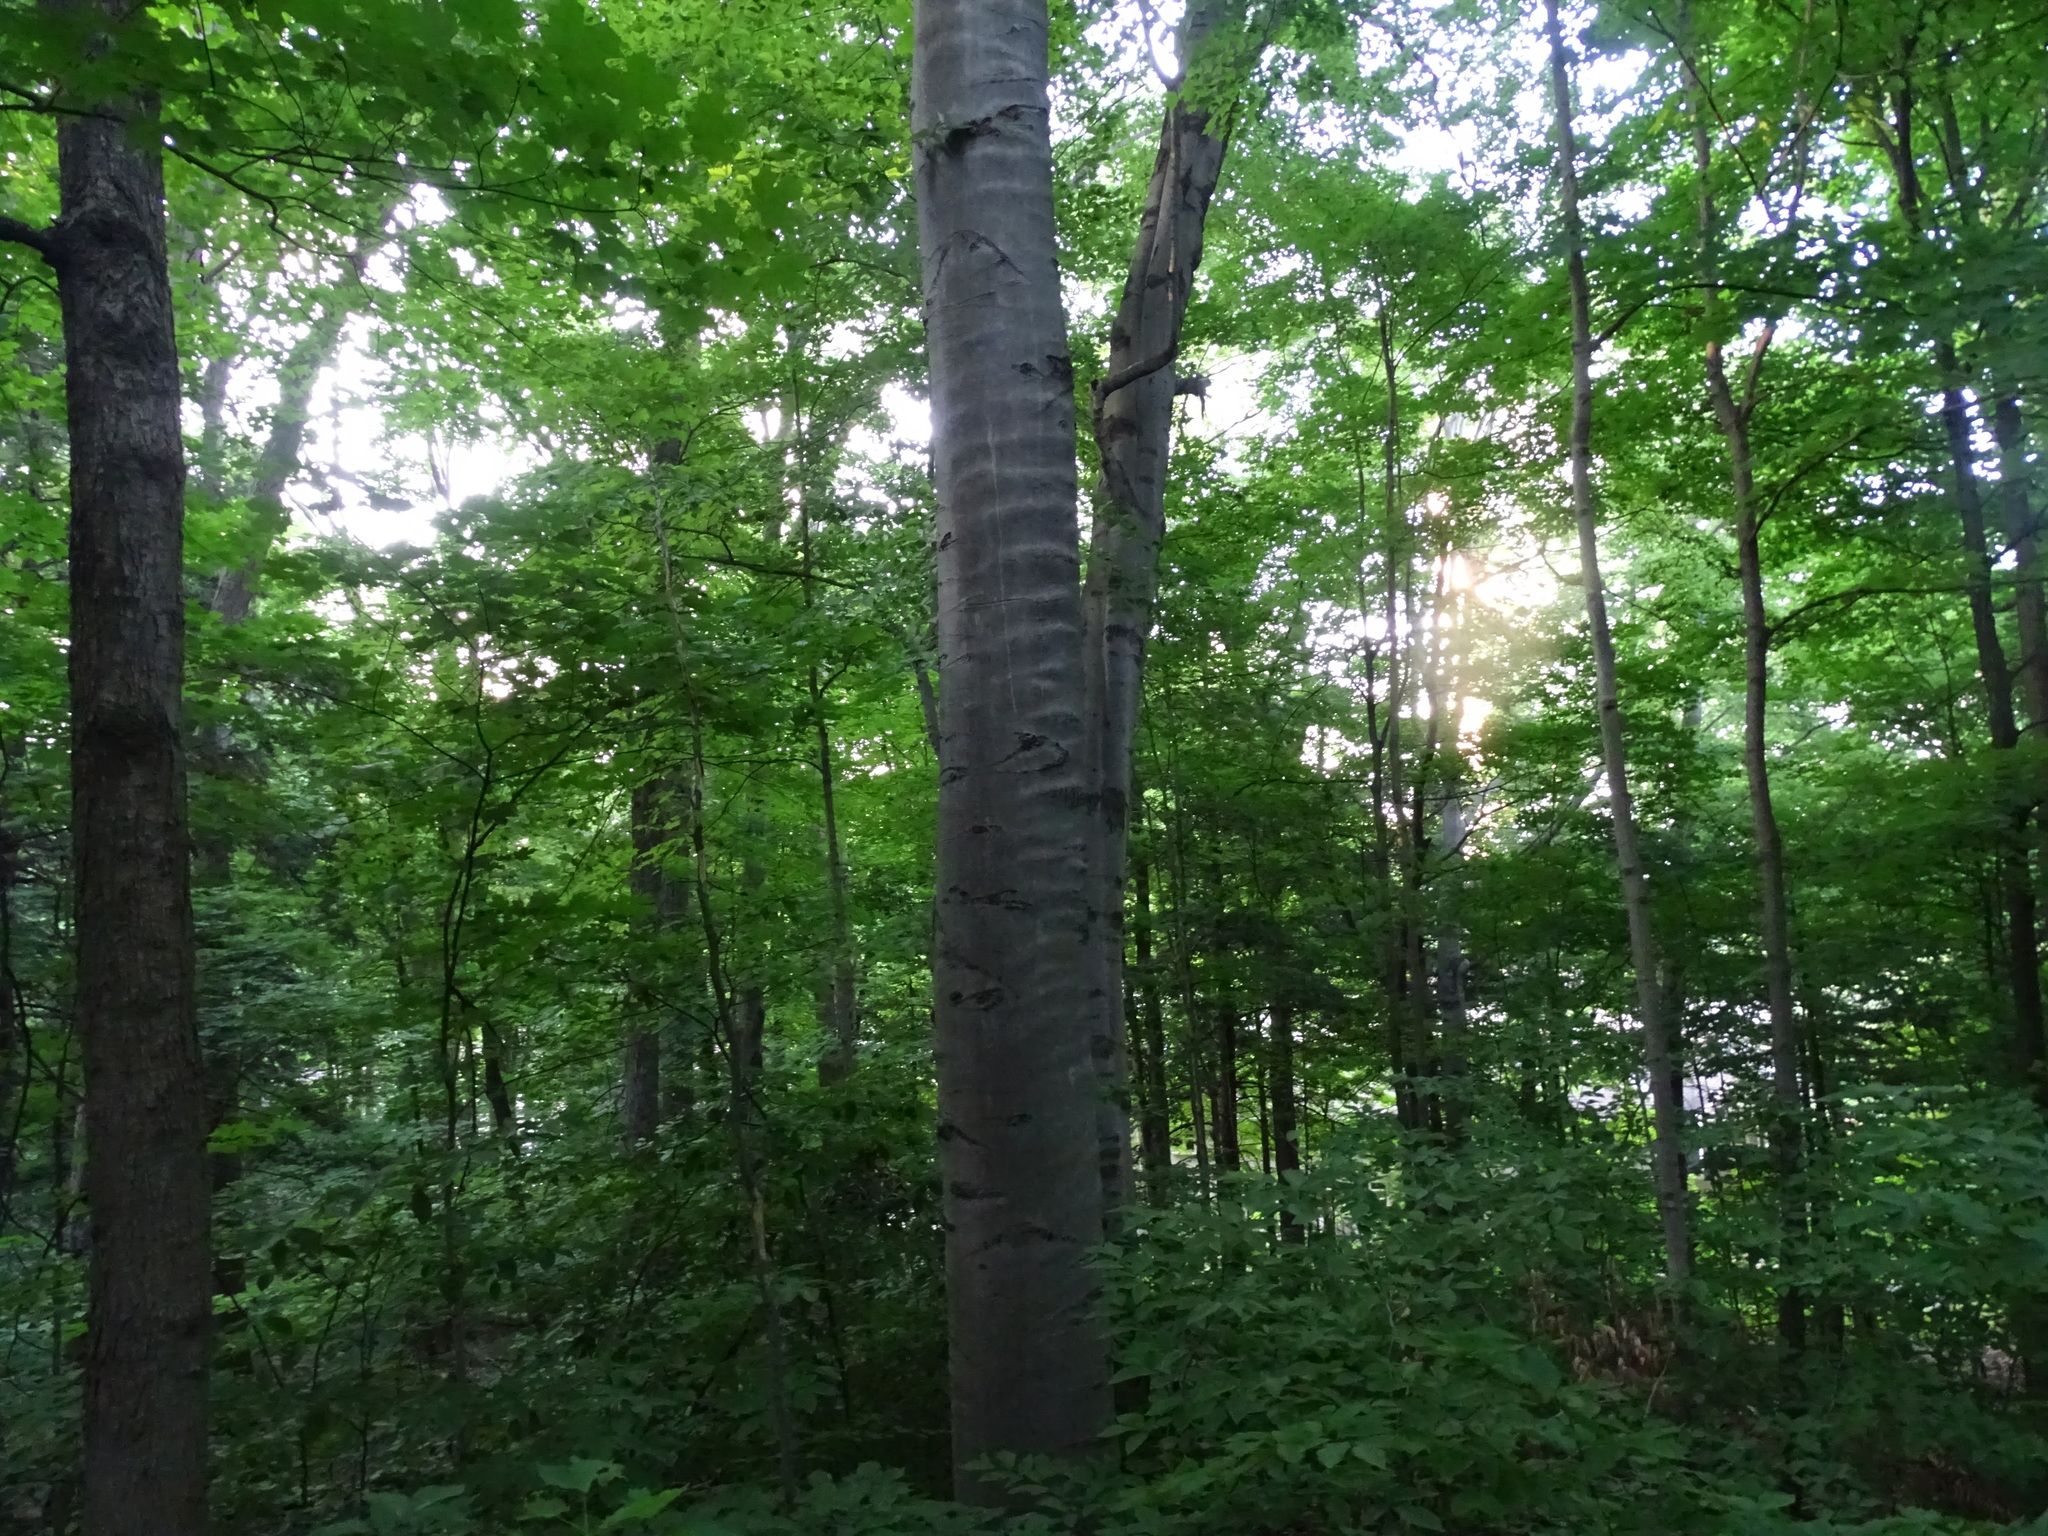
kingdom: Plantae
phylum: Tracheophyta
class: Magnoliopsida
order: Fagales
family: Fagaceae
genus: Fagus
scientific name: Fagus grandifolia
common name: American beech
